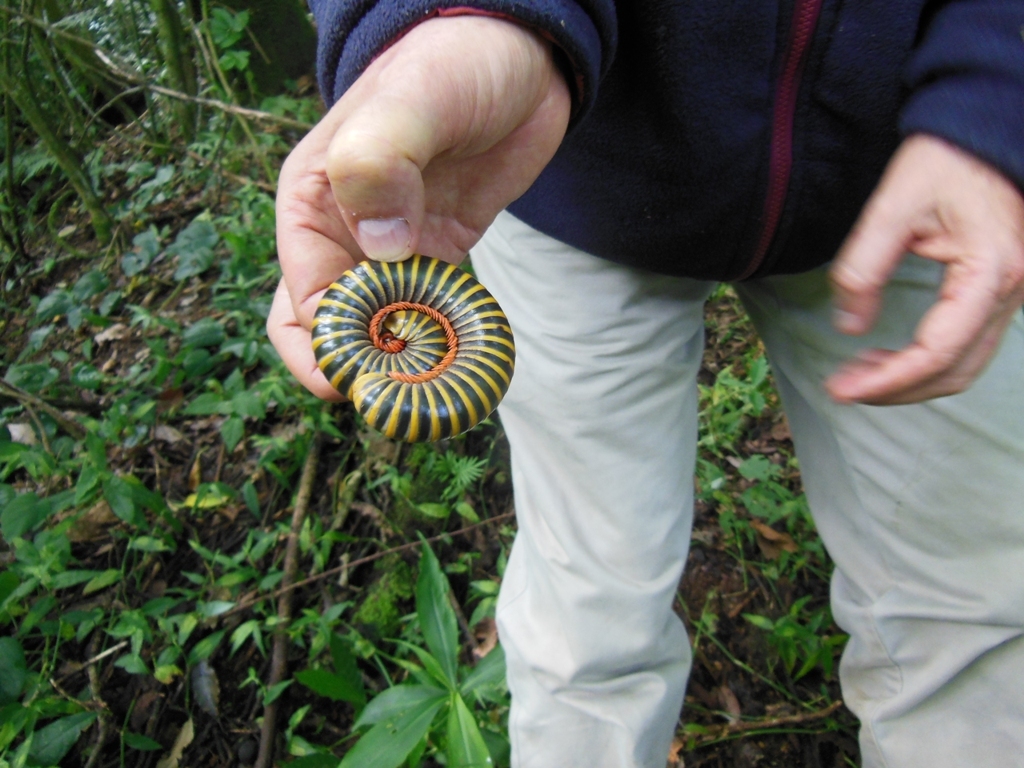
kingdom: Animalia
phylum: Arthropoda
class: Diplopoda
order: Spirobolida
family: Messicobolidae
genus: Messicobolus
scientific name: Messicobolus magnificus
